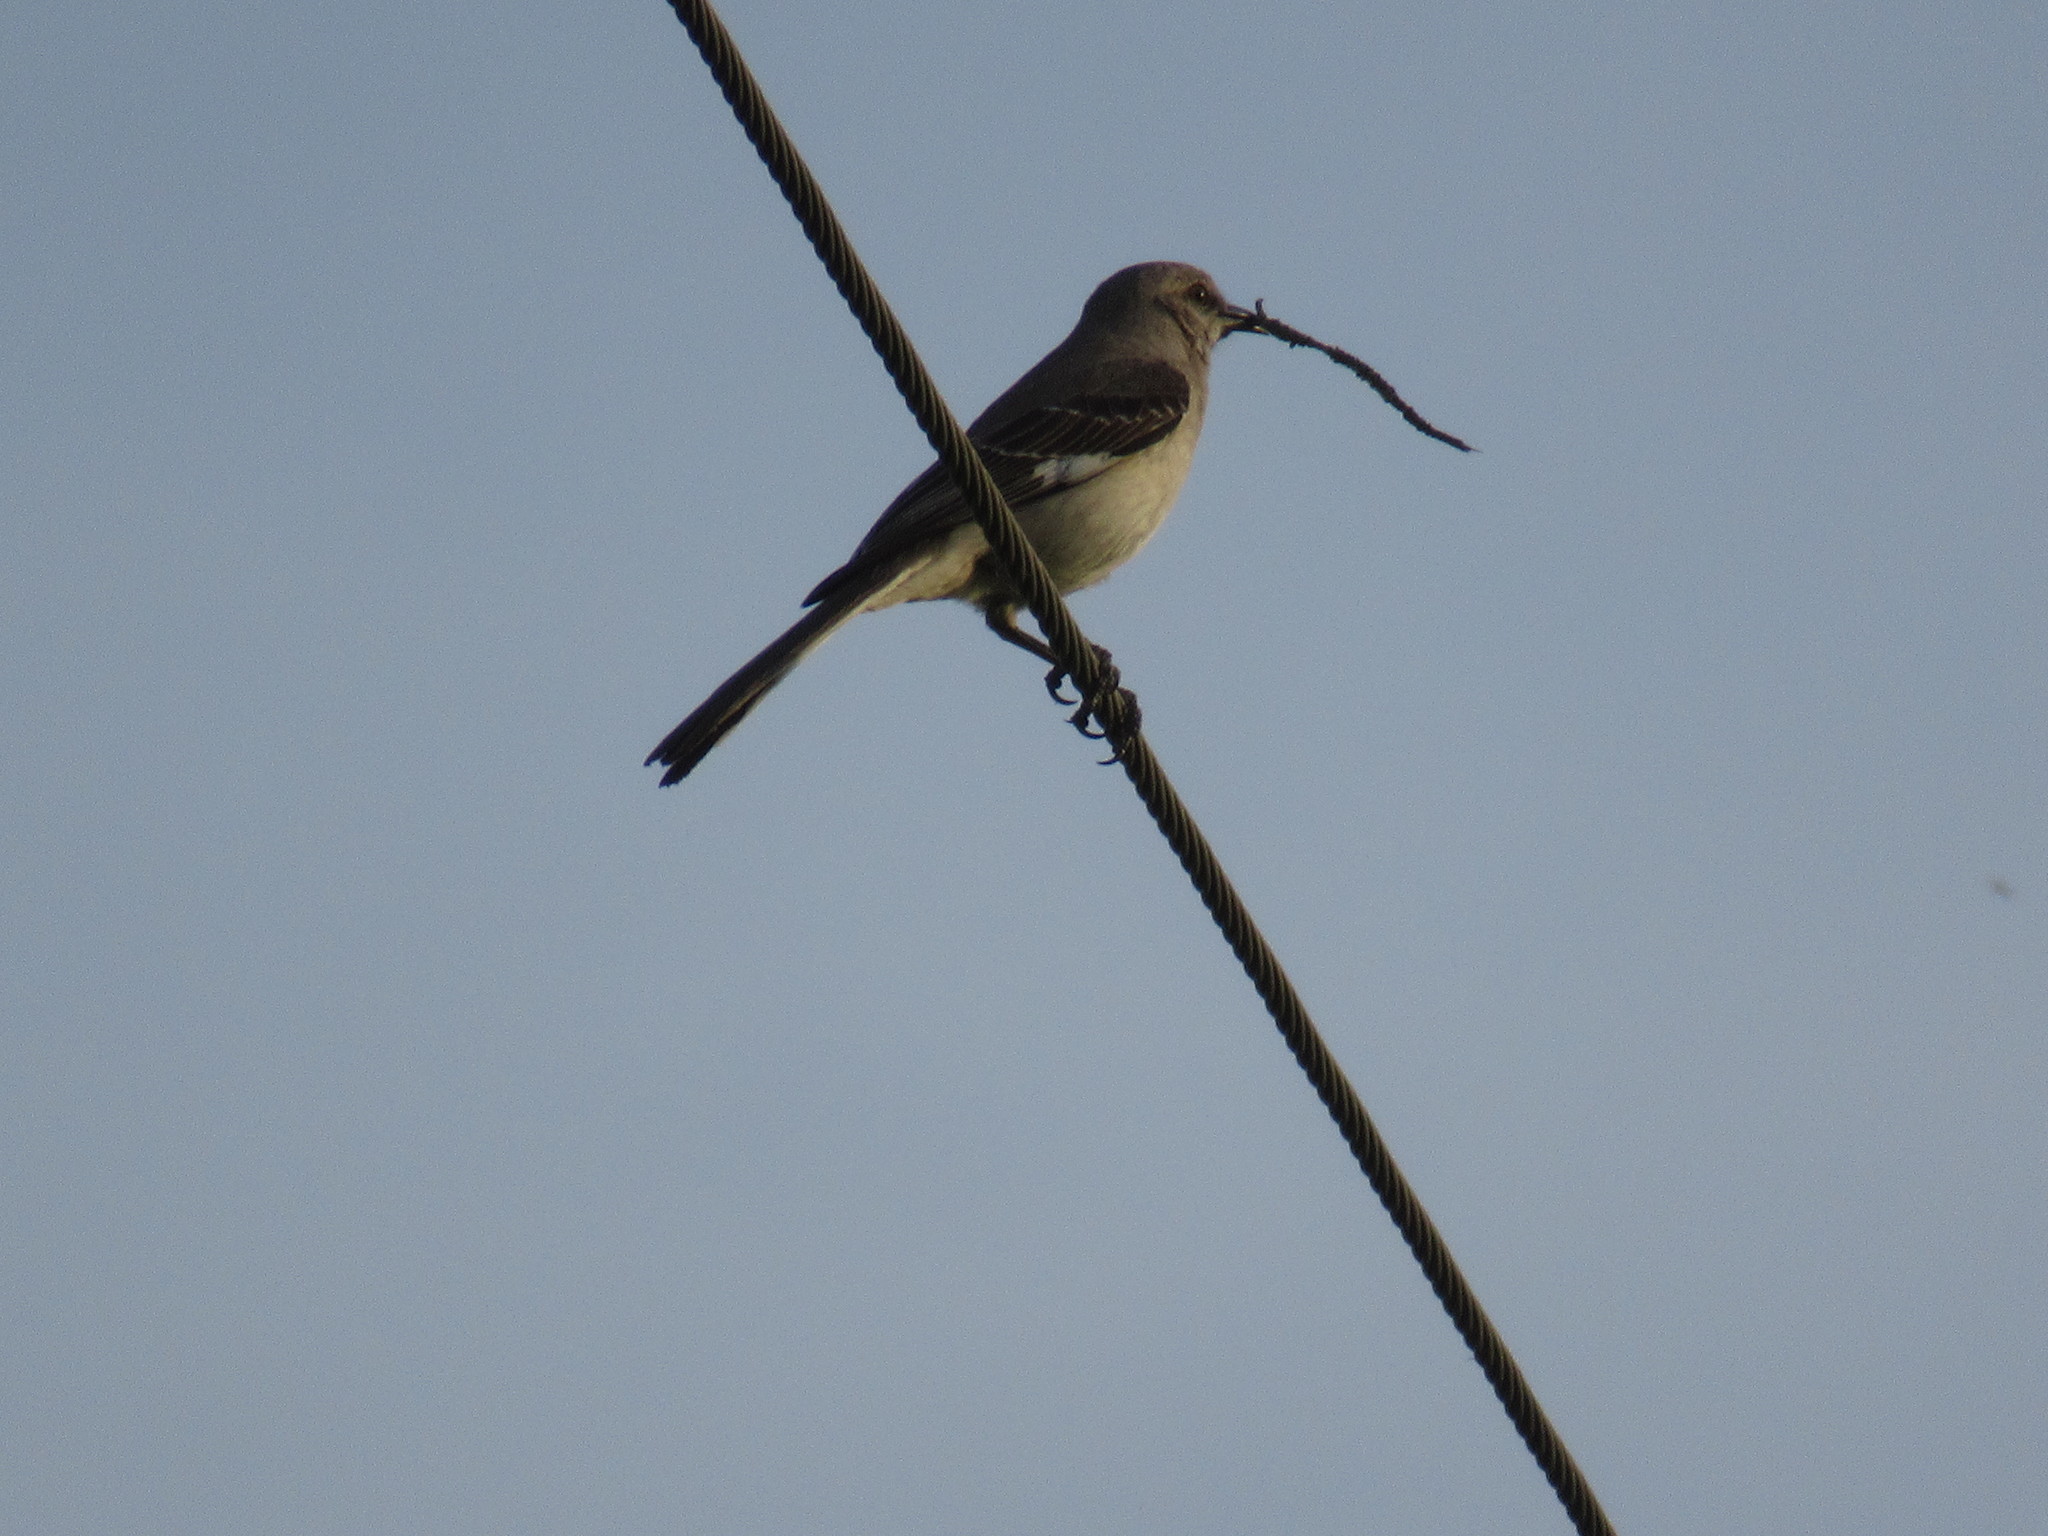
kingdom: Animalia
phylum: Chordata
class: Aves
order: Passeriformes
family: Mimidae
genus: Mimus
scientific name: Mimus polyglottos
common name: Northern mockingbird
